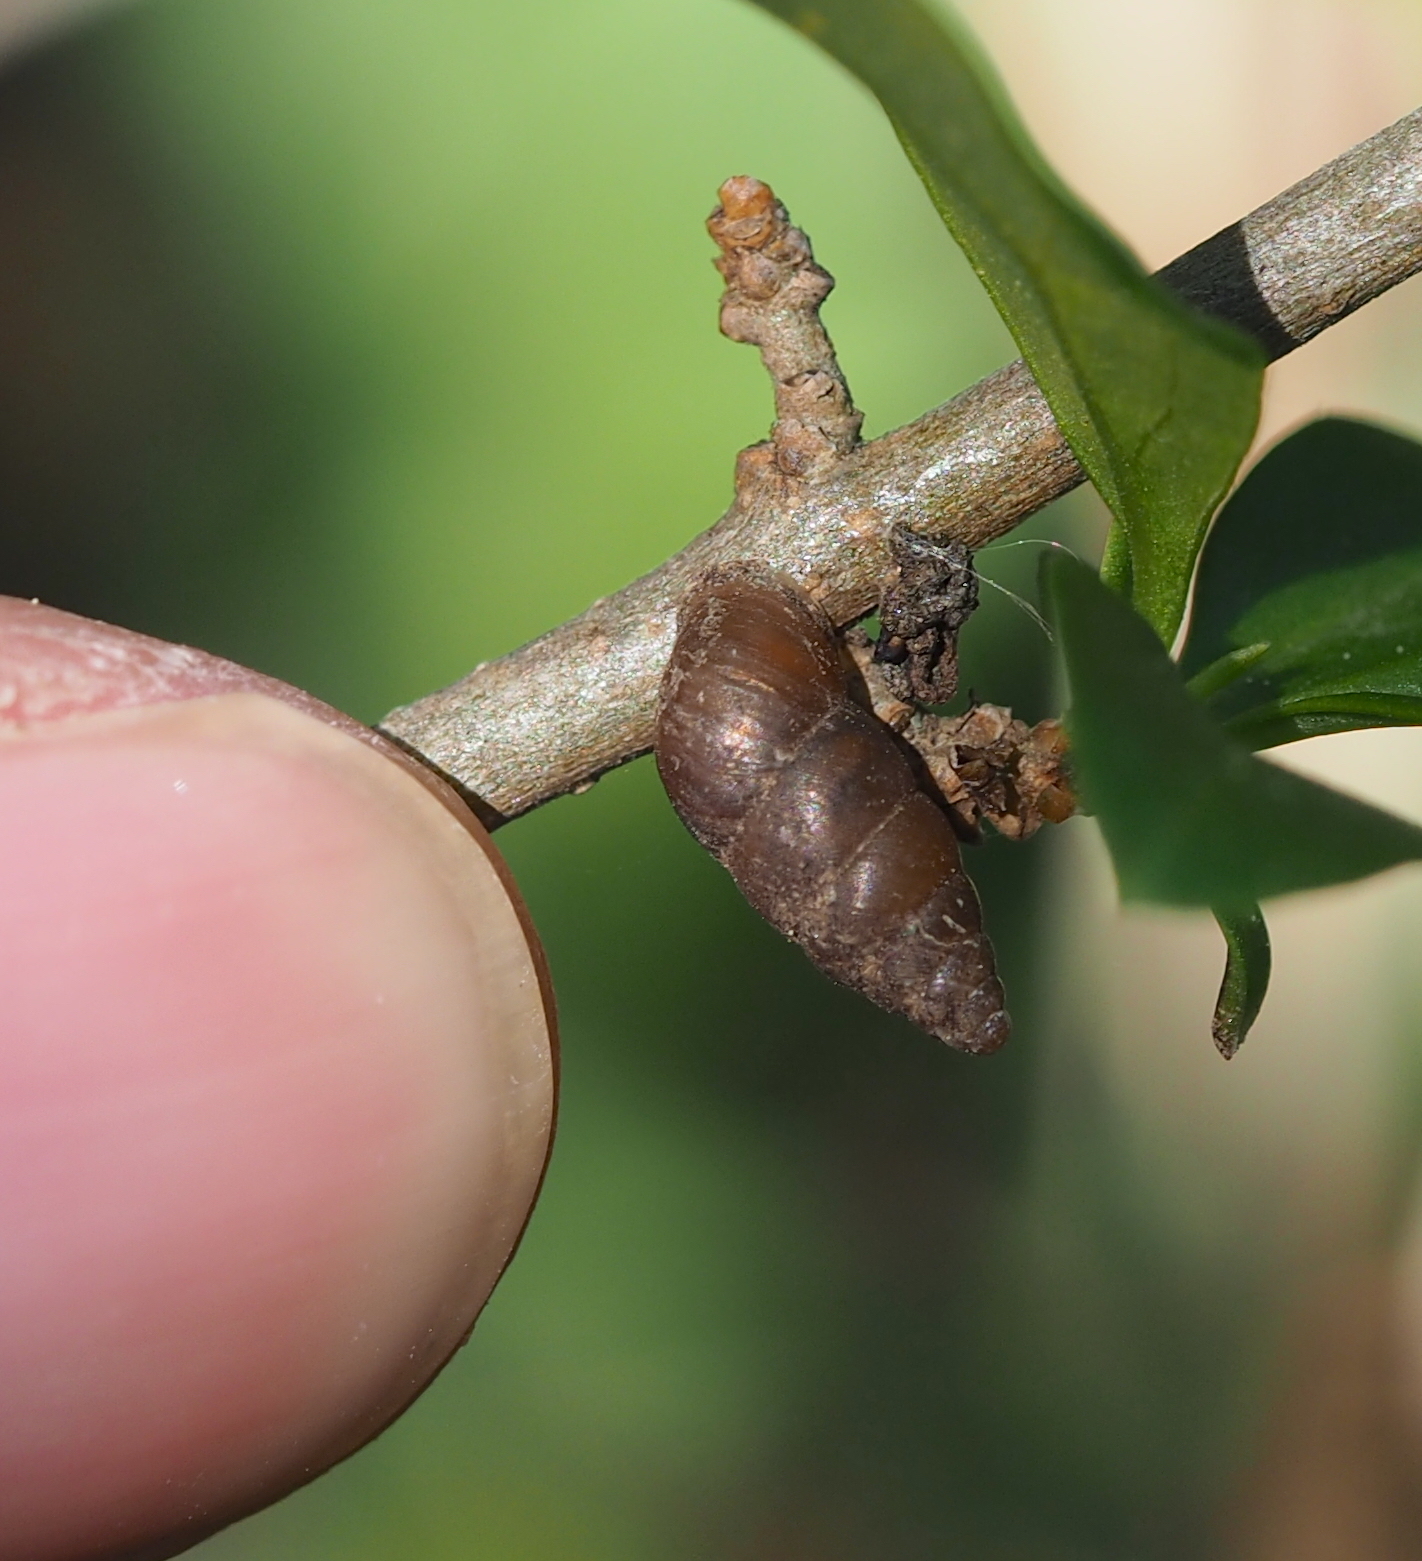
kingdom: Animalia
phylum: Mollusca
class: Gastropoda
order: Stylommatophora
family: Enidae
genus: Merdigera
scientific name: Merdigera obscura
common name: Lesser bulin
